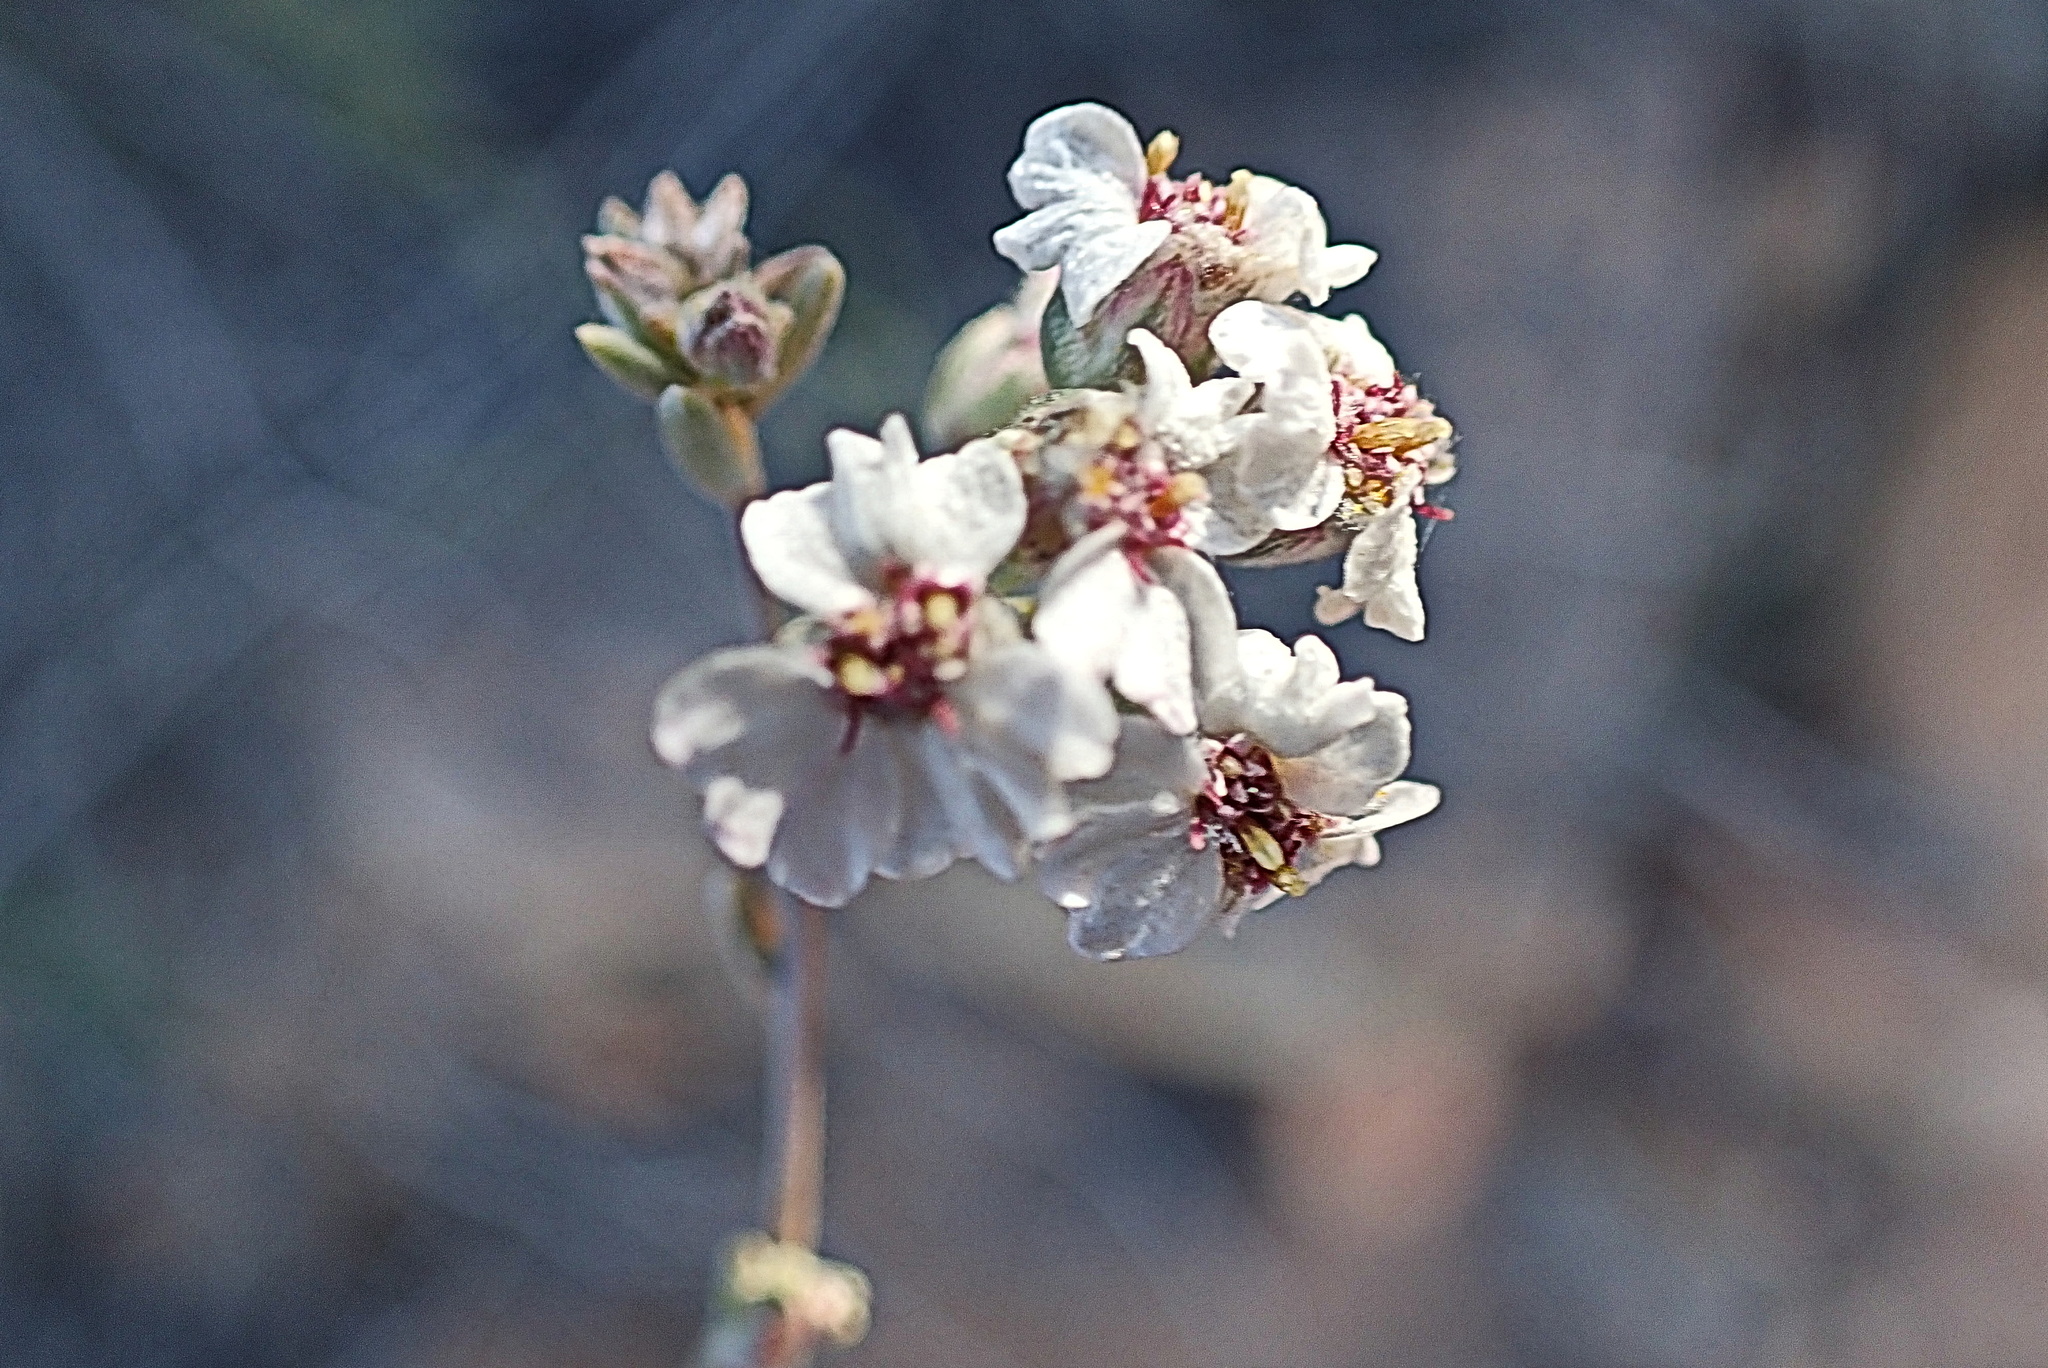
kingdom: Plantae
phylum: Tracheophyta
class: Magnoliopsida
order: Asterales
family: Asteraceae
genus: Eriocephalus
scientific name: Eriocephalus africanus
